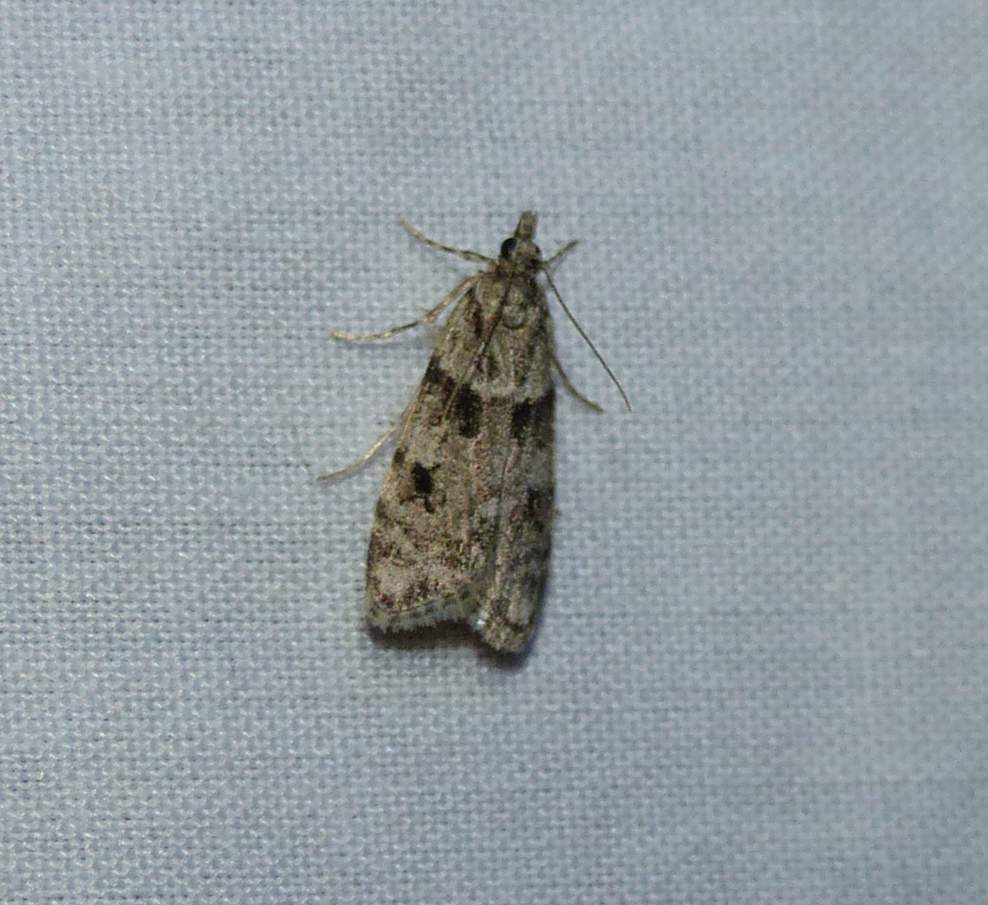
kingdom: Animalia
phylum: Arthropoda
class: Insecta
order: Lepidoptera
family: Crambidae
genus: Scoparia
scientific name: Scoparia biplagialis
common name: Double-striped scoparia moth
